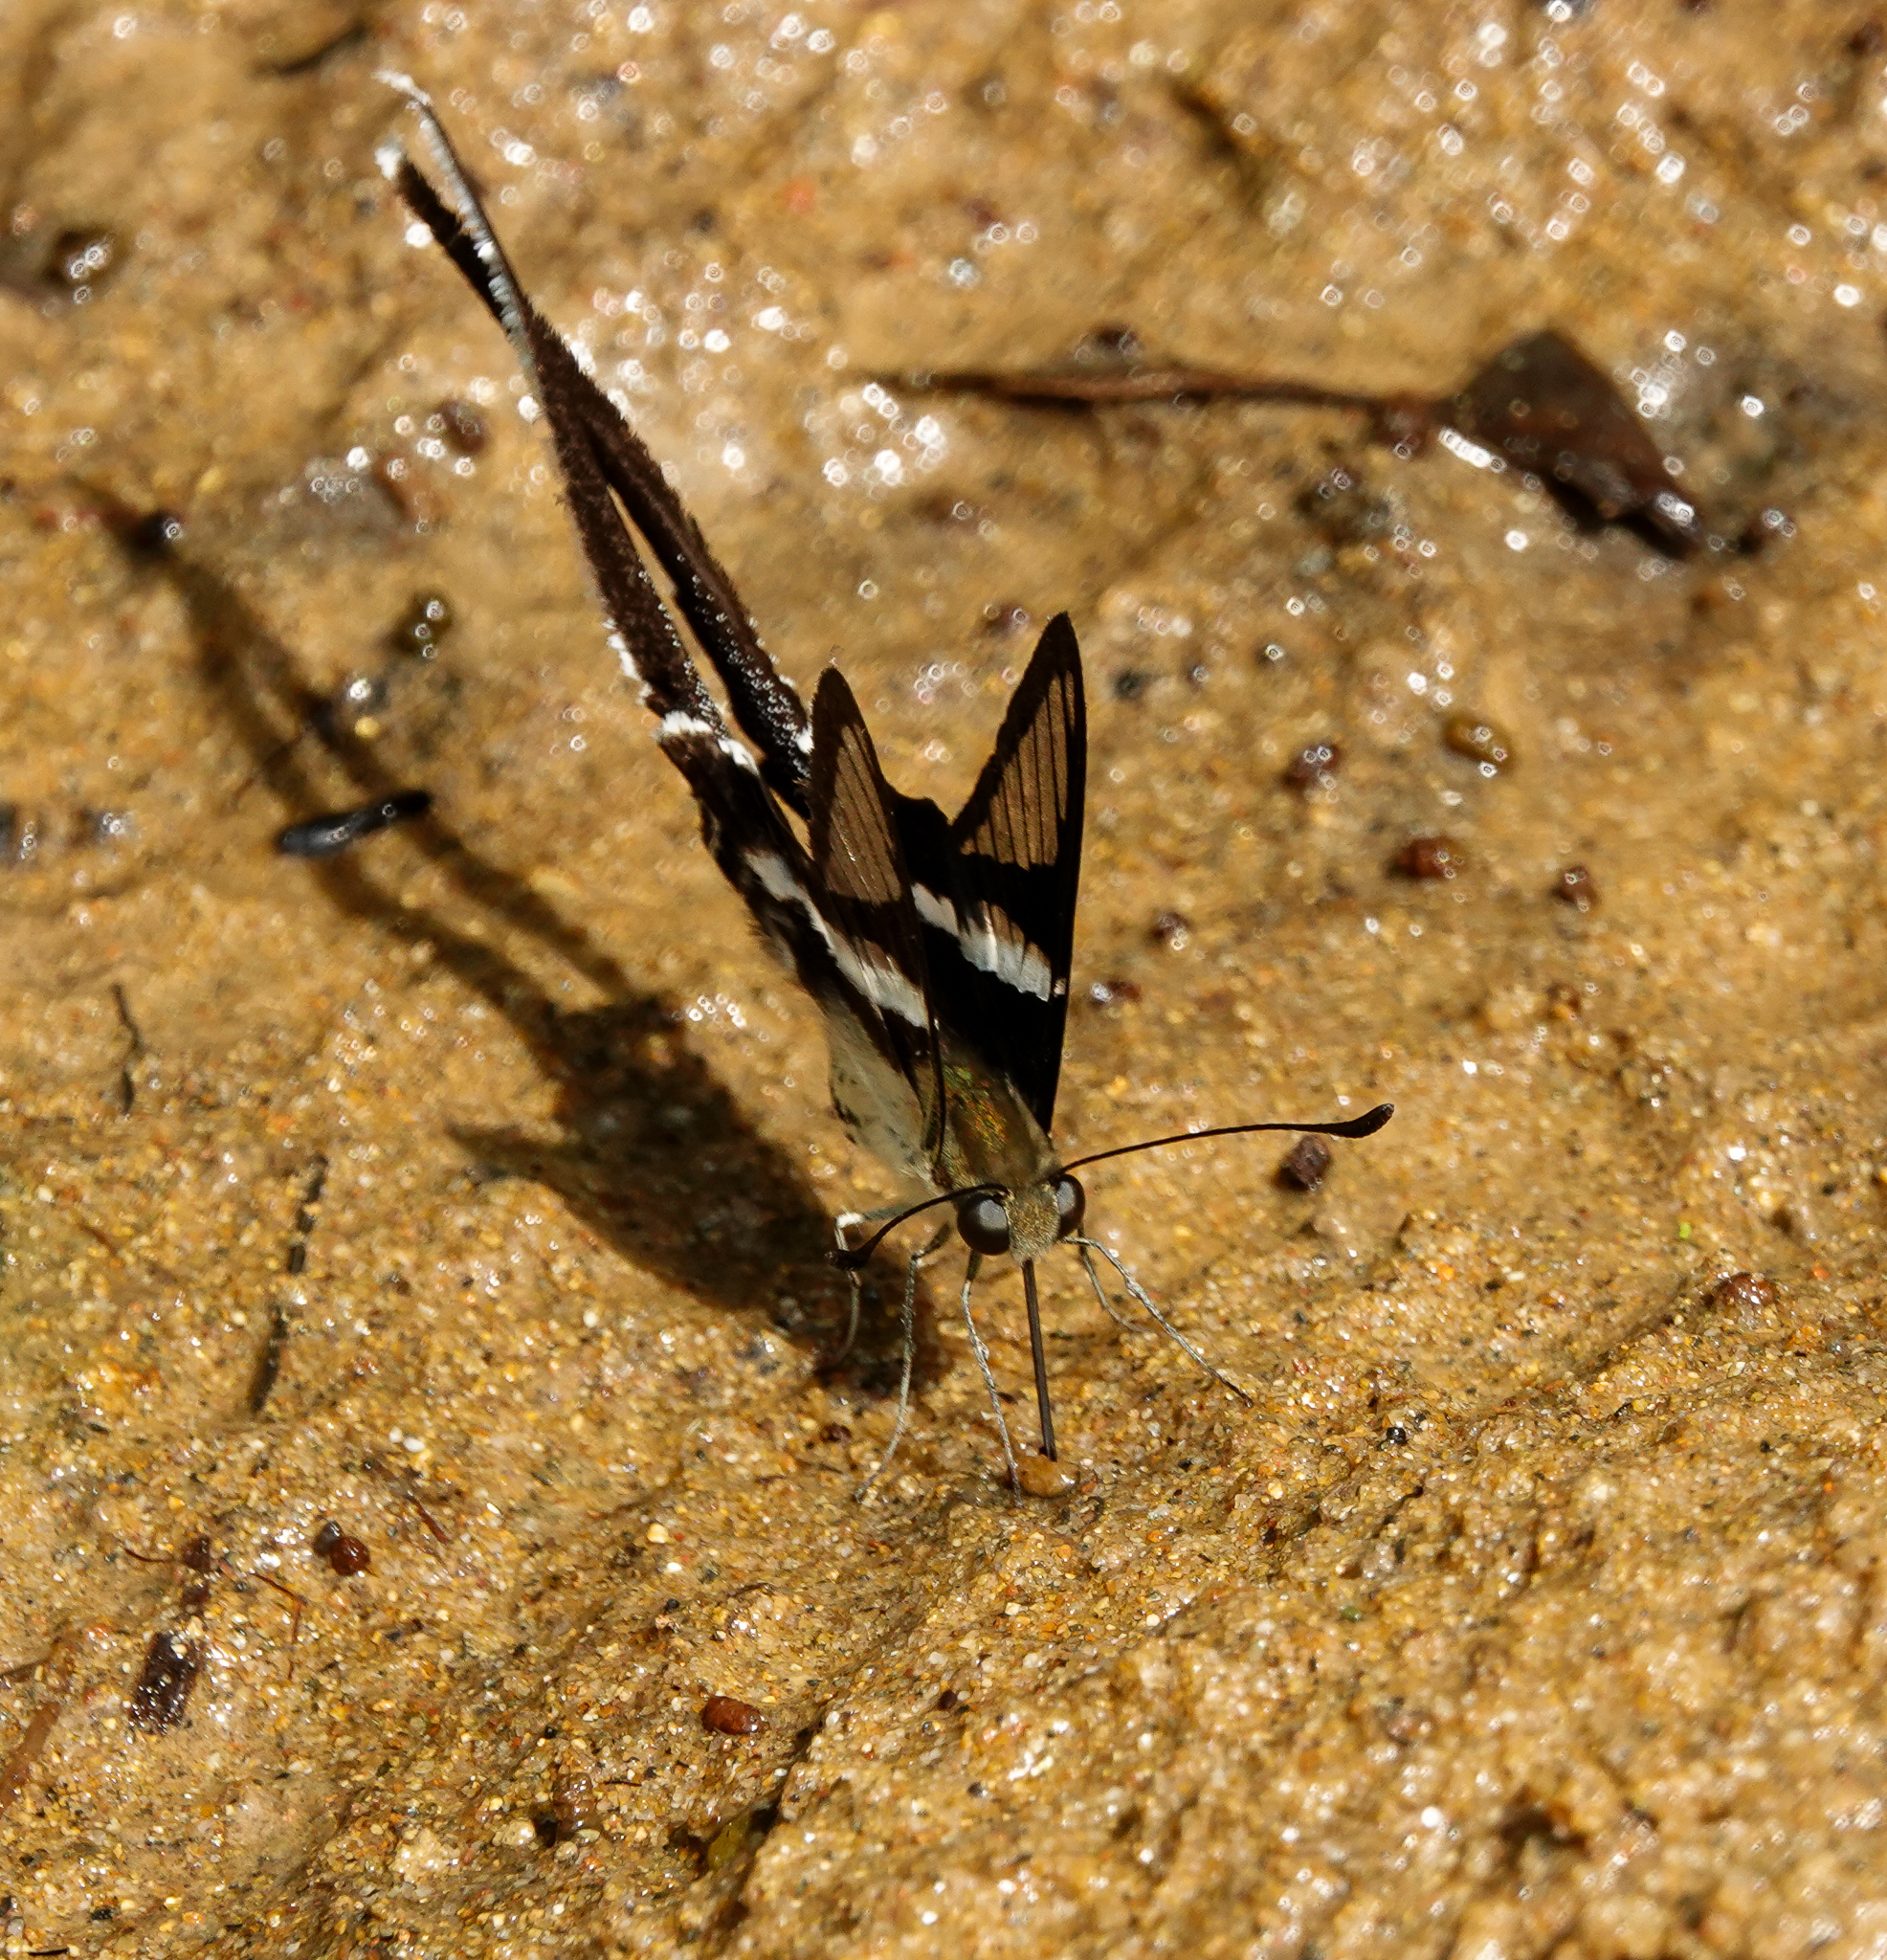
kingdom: Animalia
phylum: Arthropoda
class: Insecta
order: Lepidoptera
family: Papilionidae
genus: Lamproptera
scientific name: Lamproptera curius
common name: White dragontail
